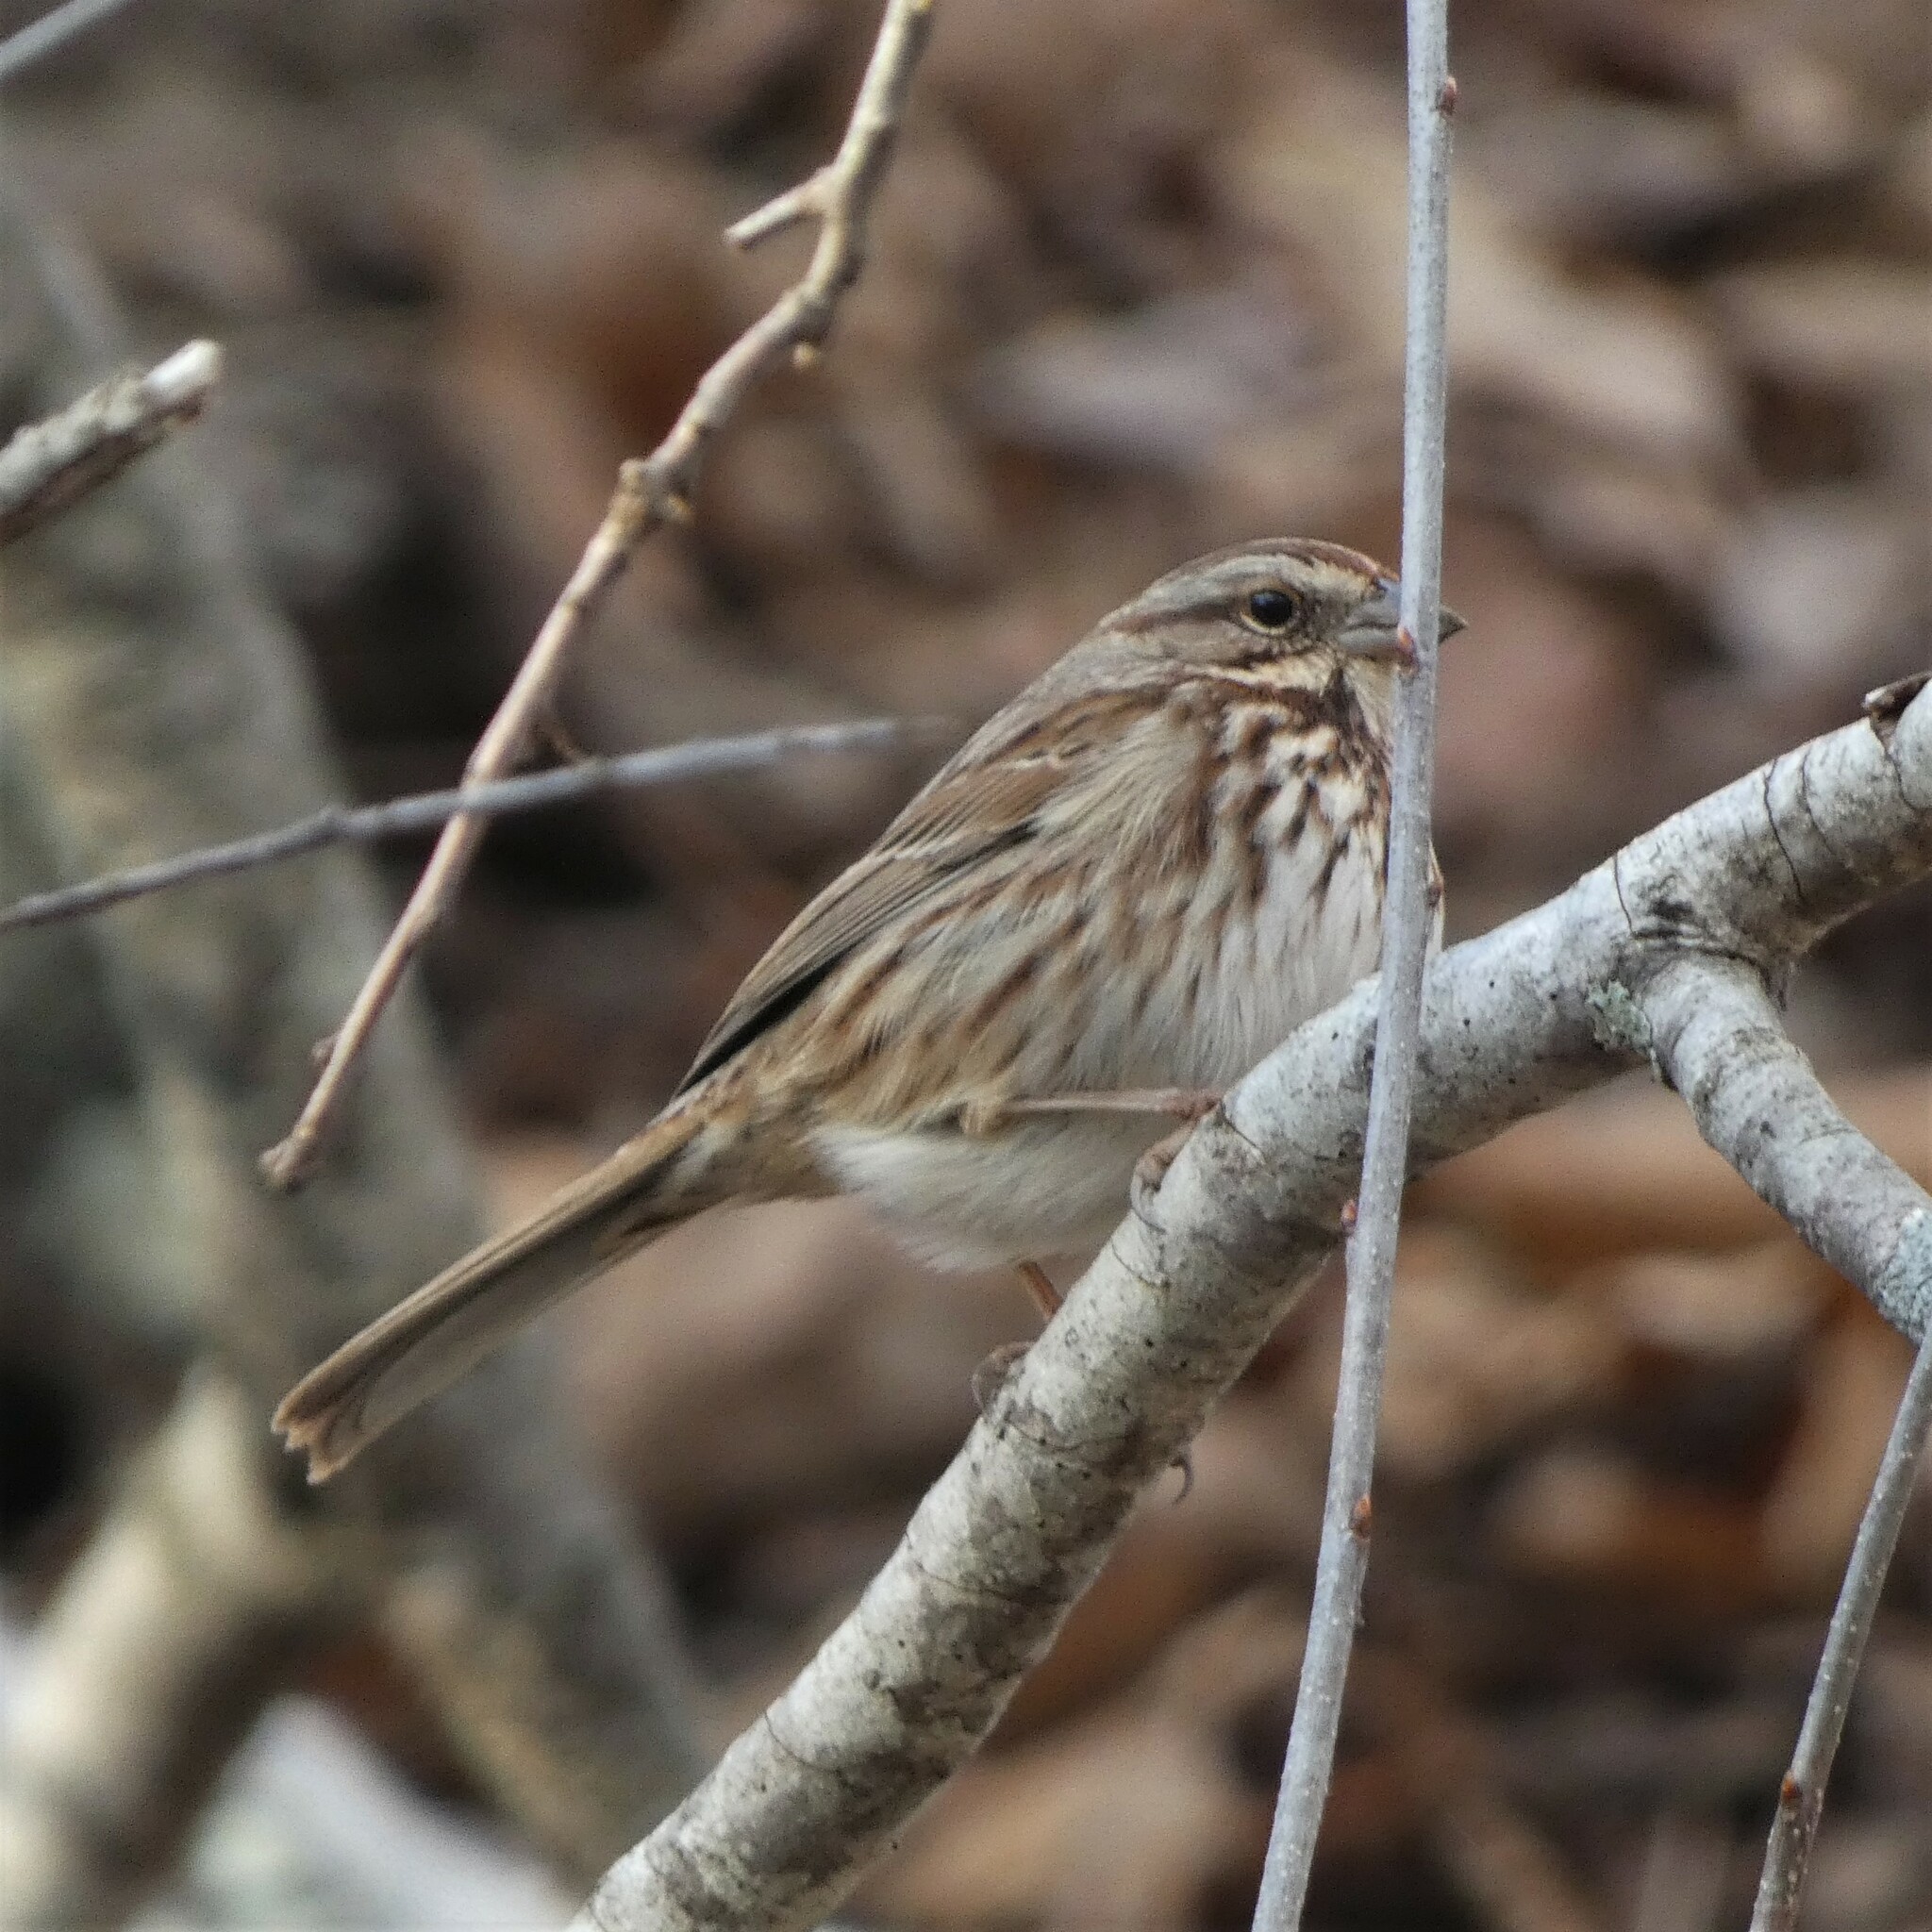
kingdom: Animalia
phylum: Chordata
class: Aves
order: Passeriformes
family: Passerellidae
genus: Melospiza
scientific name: Melospiza melodia
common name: Song sparrow
